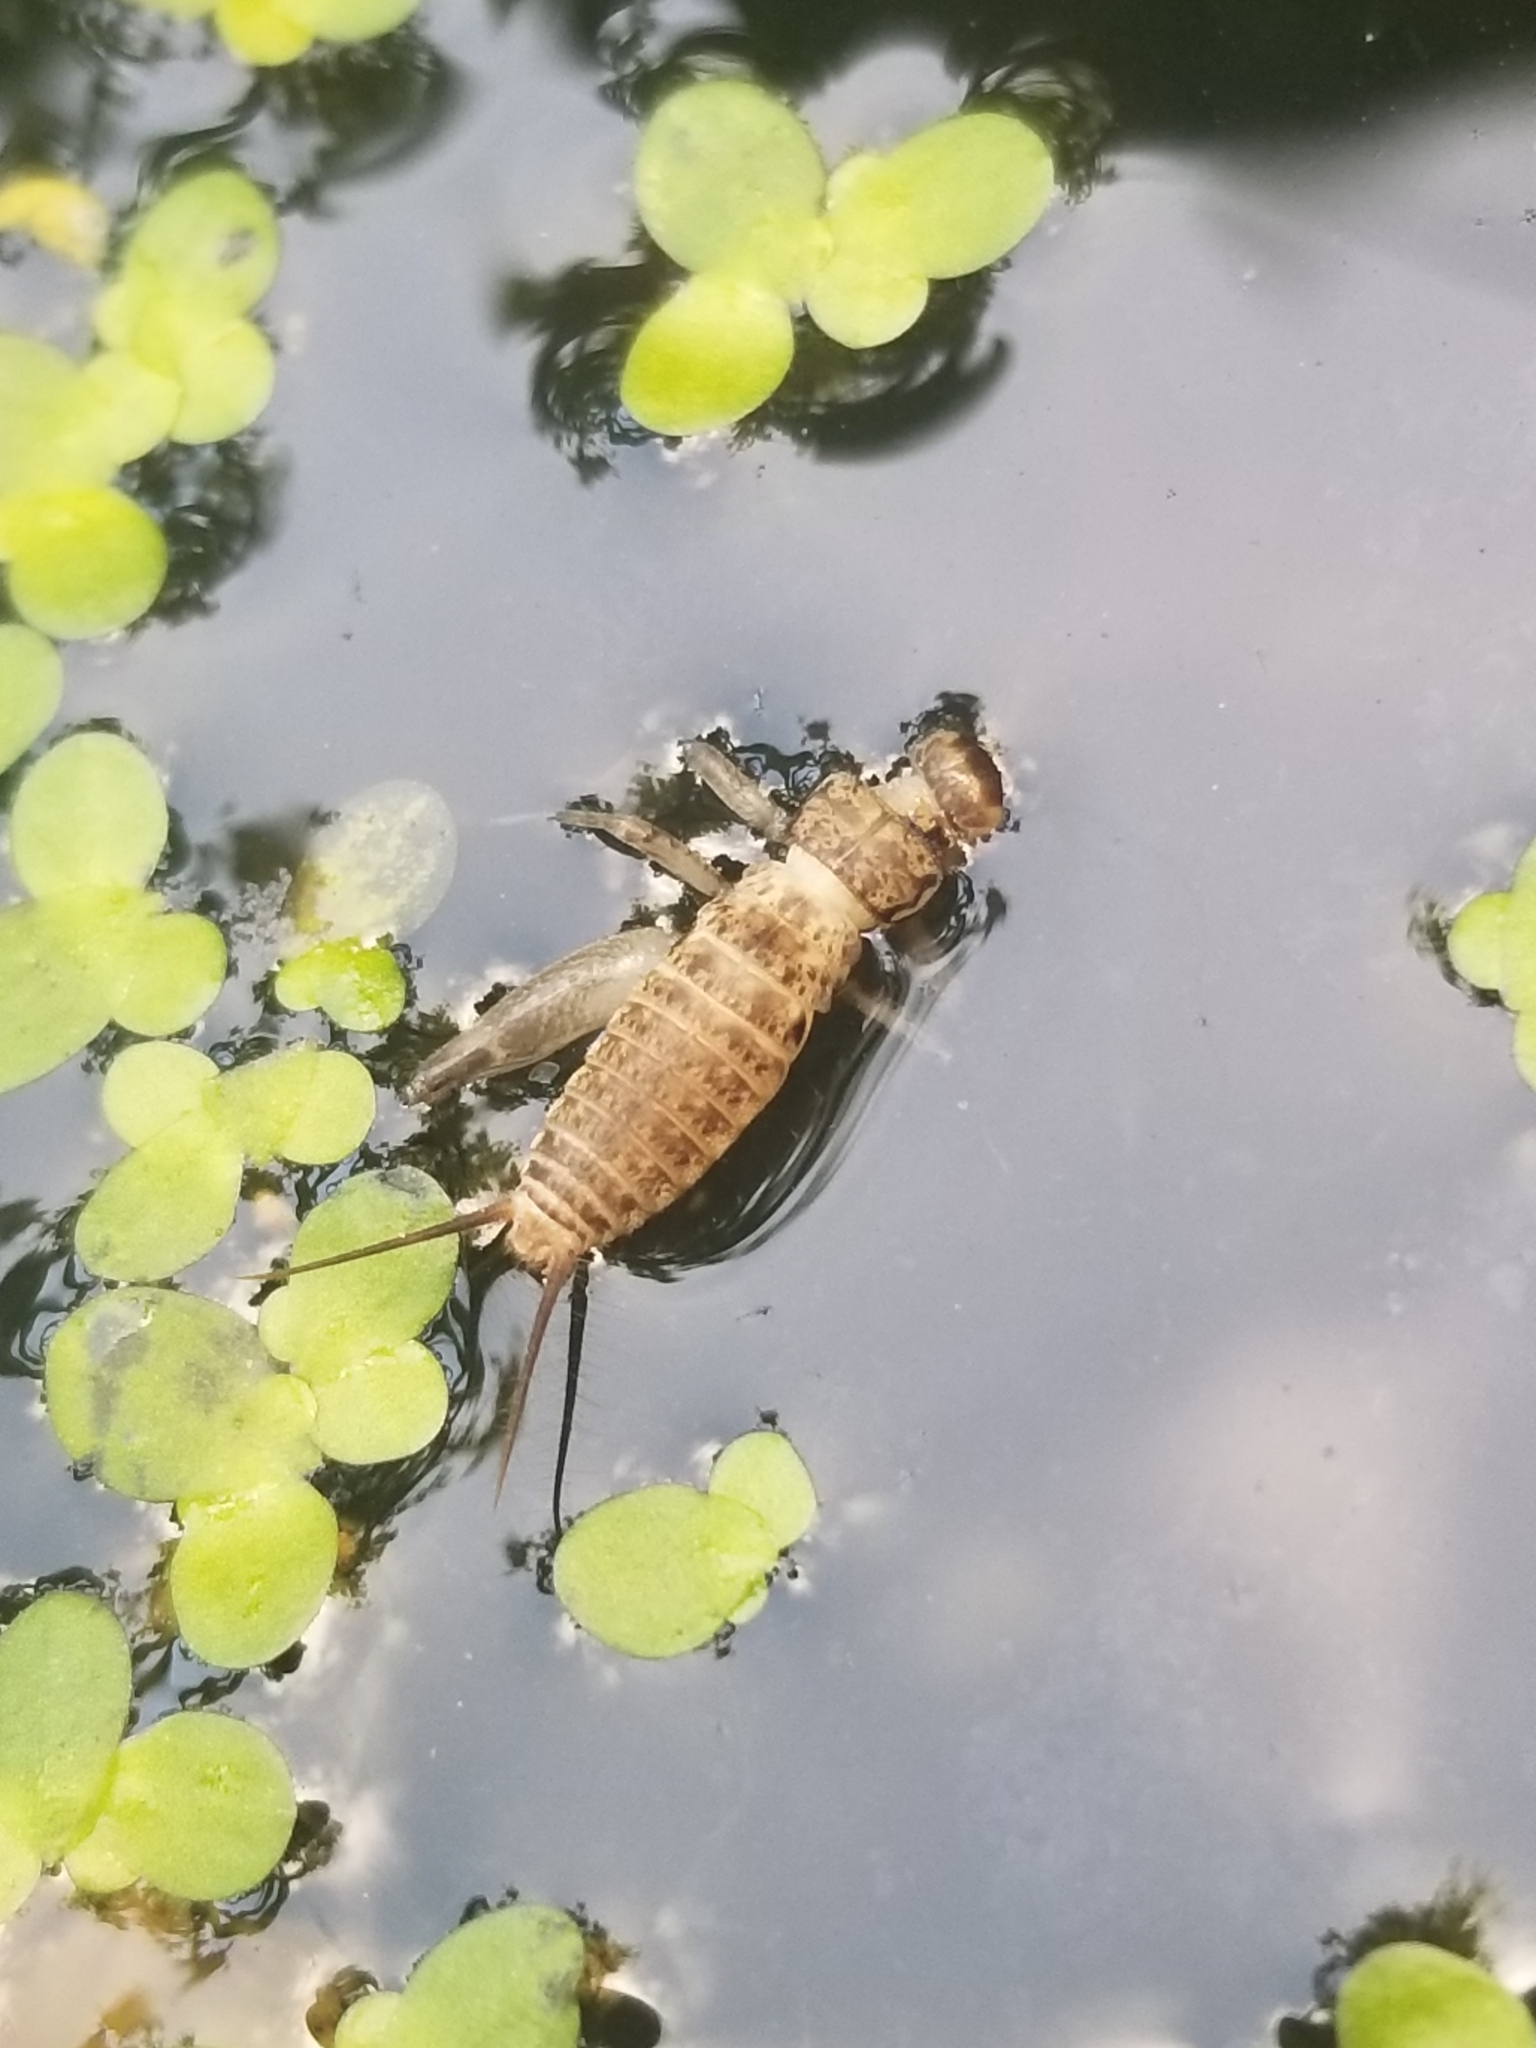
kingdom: Animalia
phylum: Arthropoda
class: Insecta
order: Orthoptera
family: Gryllidae
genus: Acheta
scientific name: Acheta domesticus
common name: House cricket
